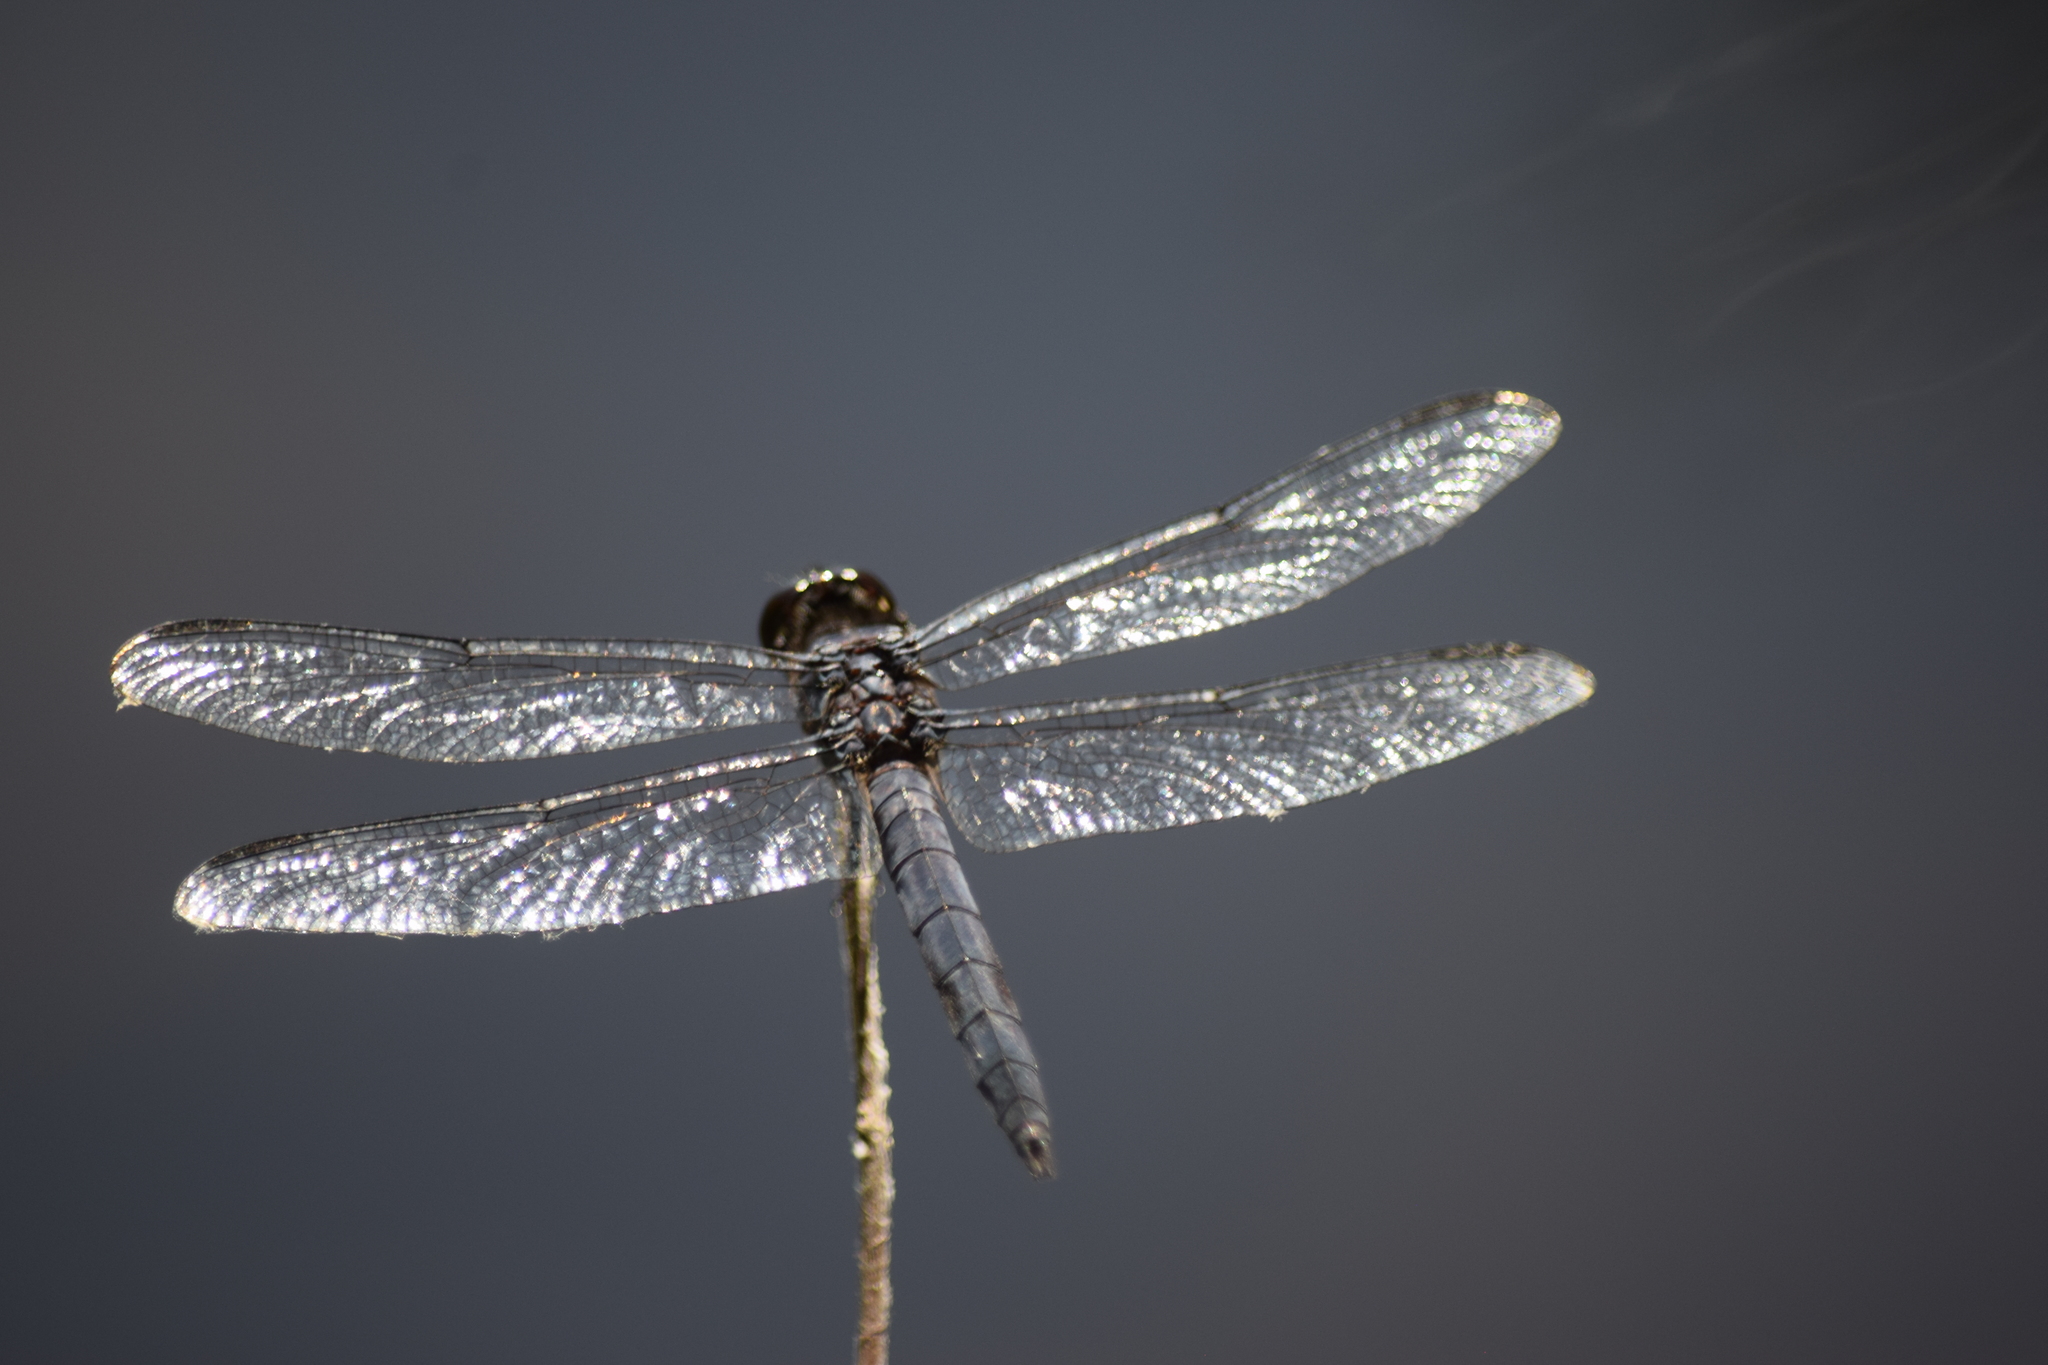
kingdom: Animalia
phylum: Arthropoda
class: Insecta
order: Odonata
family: Libellulidae
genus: Libellula
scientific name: Libellula incesta
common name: Slaty skimmer
